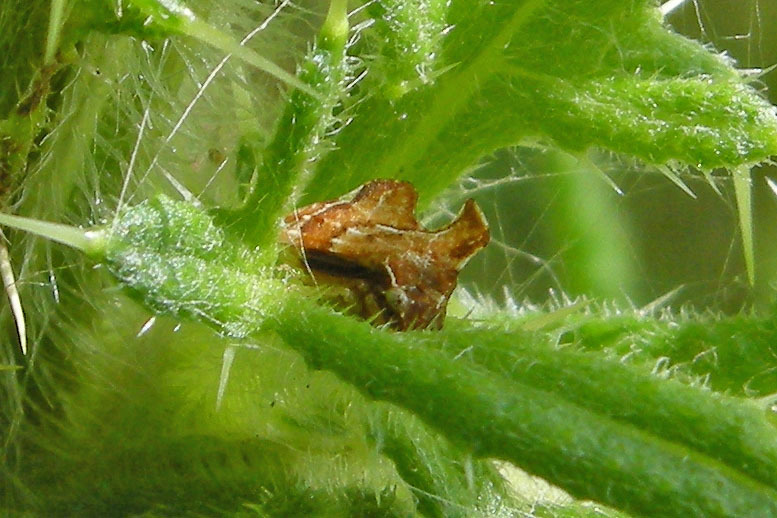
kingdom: Animalia
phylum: Arthropoda
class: Insecta
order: Hemiptera
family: Membracidae
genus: Entylia
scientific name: Entylia carinata
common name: Keeled treehopper
